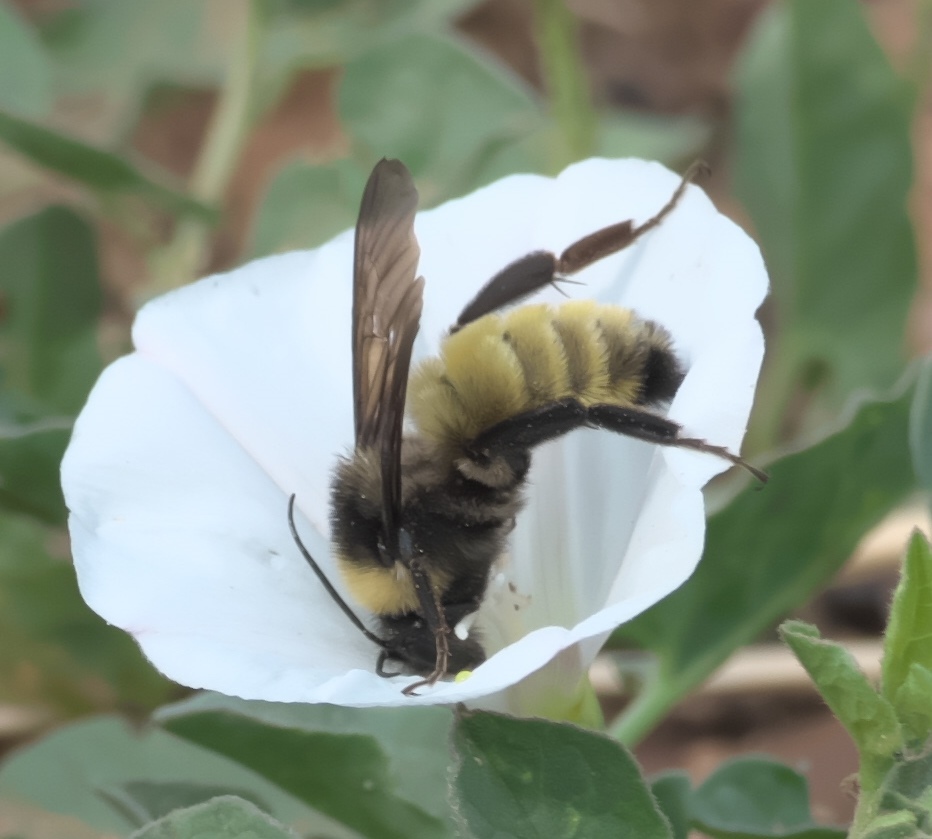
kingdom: Animalia
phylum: Arthropoda
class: Insecta
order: Hymenoptera
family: Apidae
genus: Bombus
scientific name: Bombus pensylvanicus
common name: Bumble bee
